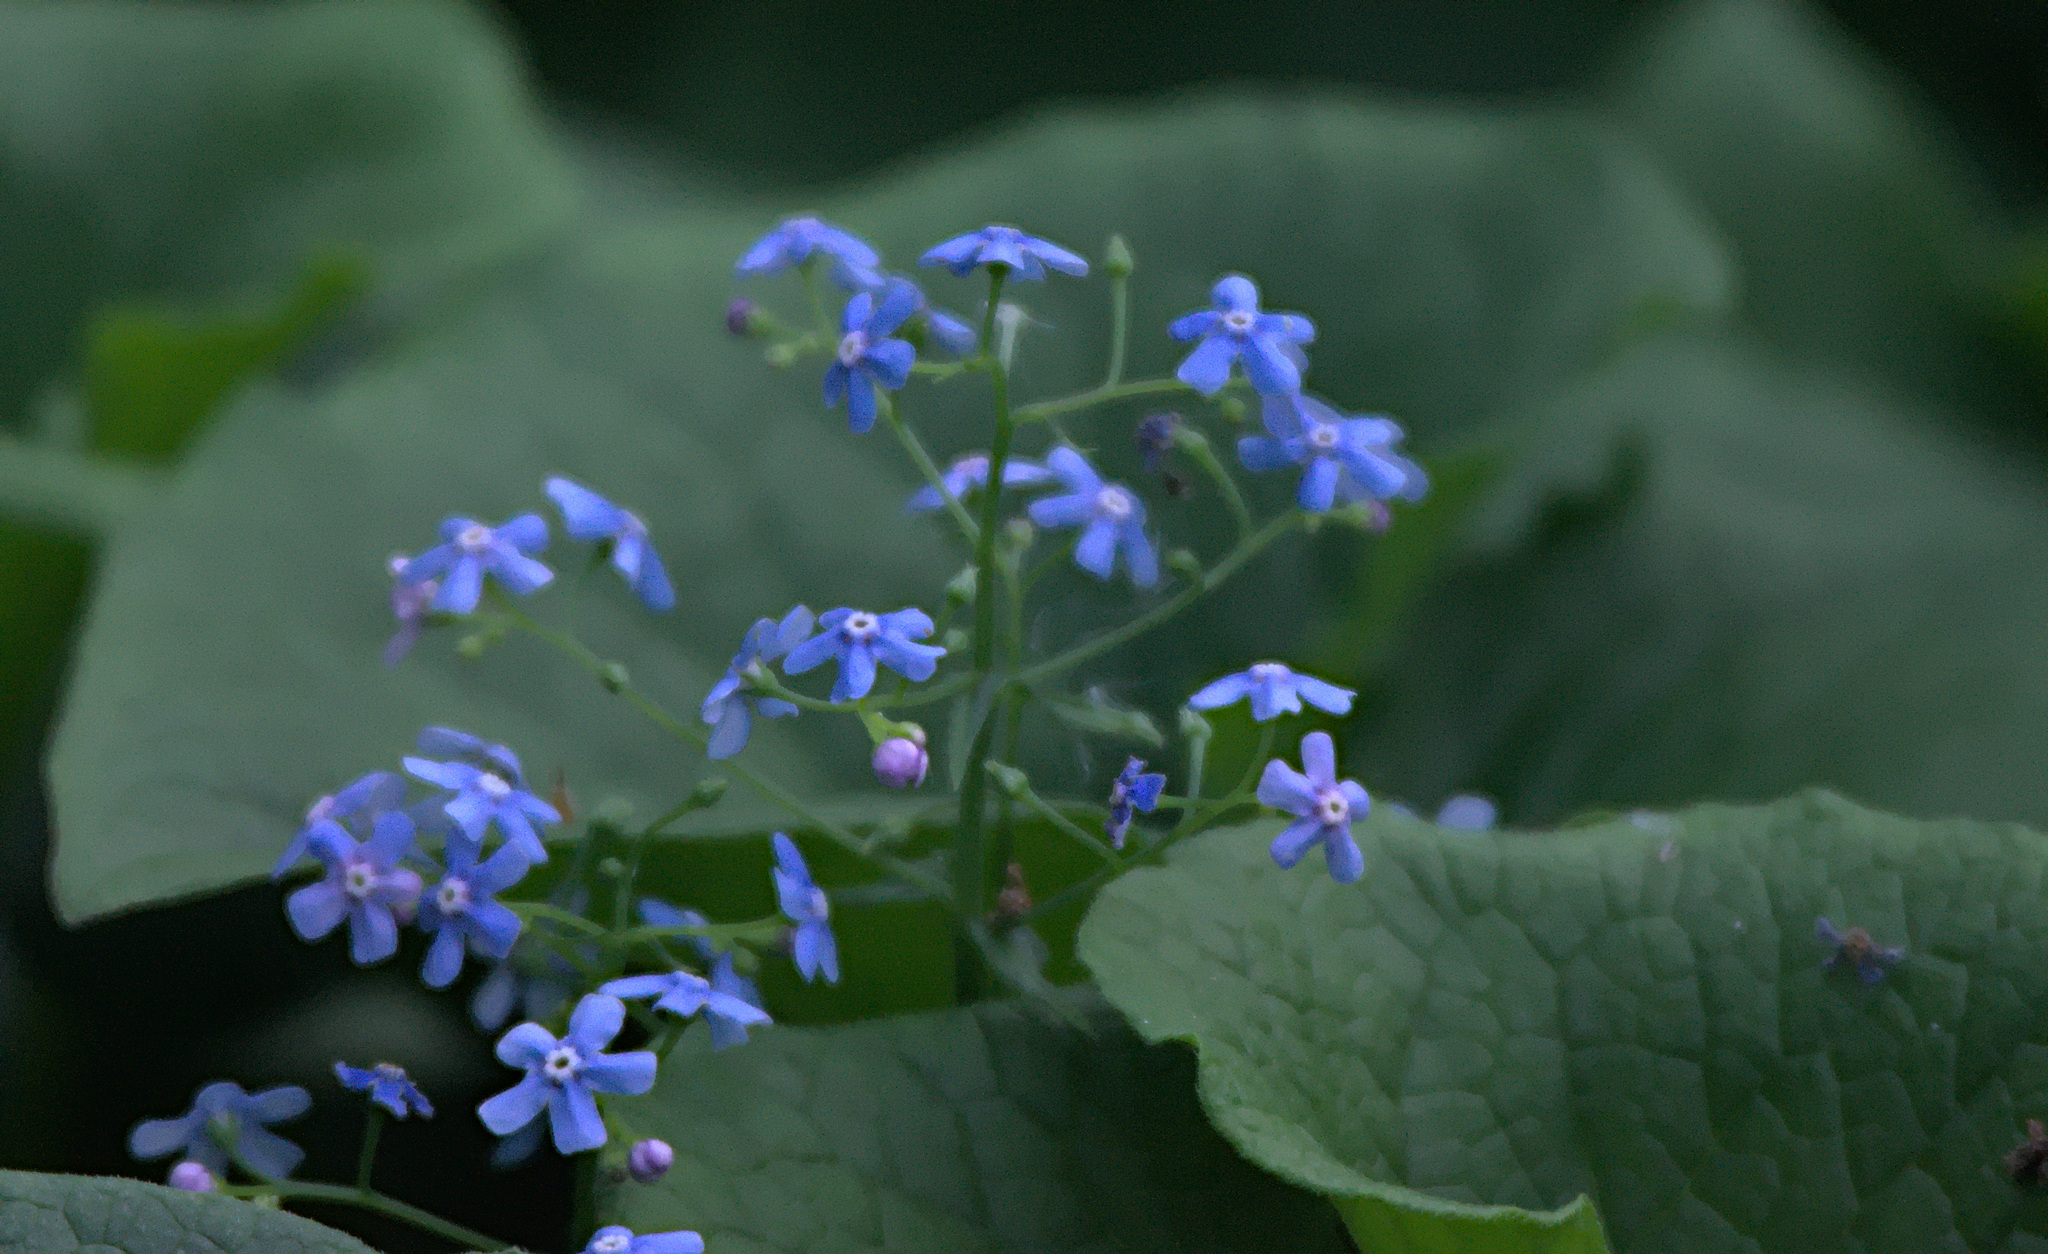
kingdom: Plantae
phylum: Tracheophyta
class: Magnoliopsida
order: Boraginales
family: Boraginaceae
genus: Brunnera
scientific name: Brunnera sibirica
